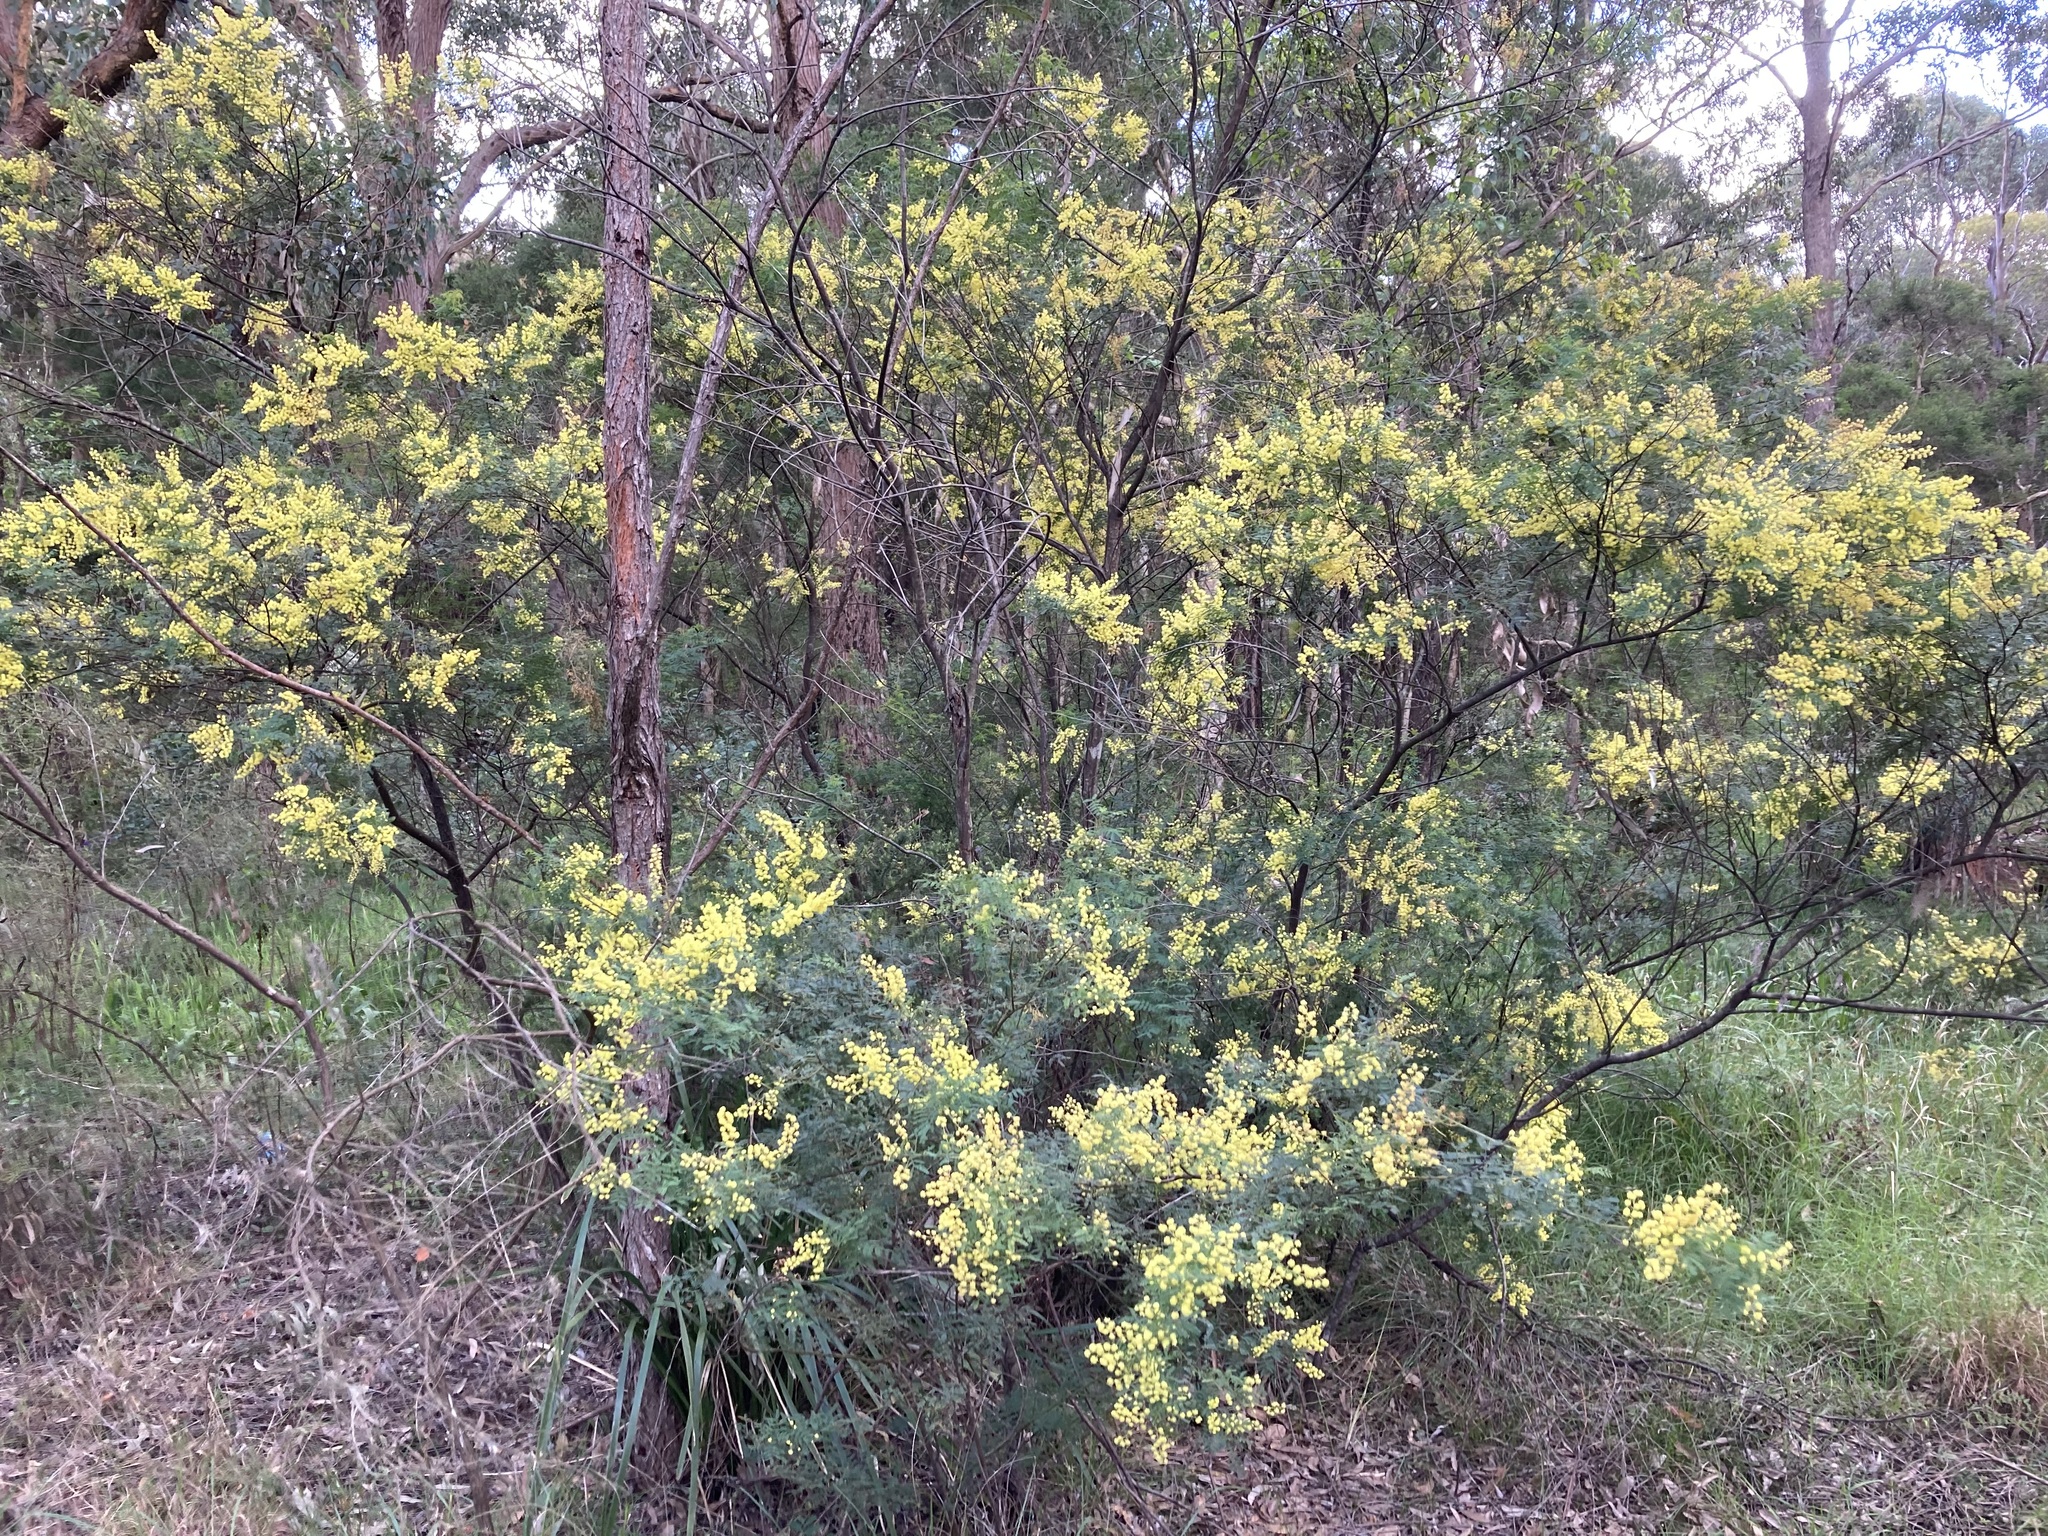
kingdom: Plantae
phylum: Tracheophyta
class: Magnoliopsida
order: Fabales
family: Fabaceae
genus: Acacia
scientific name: Acacia pubescens
